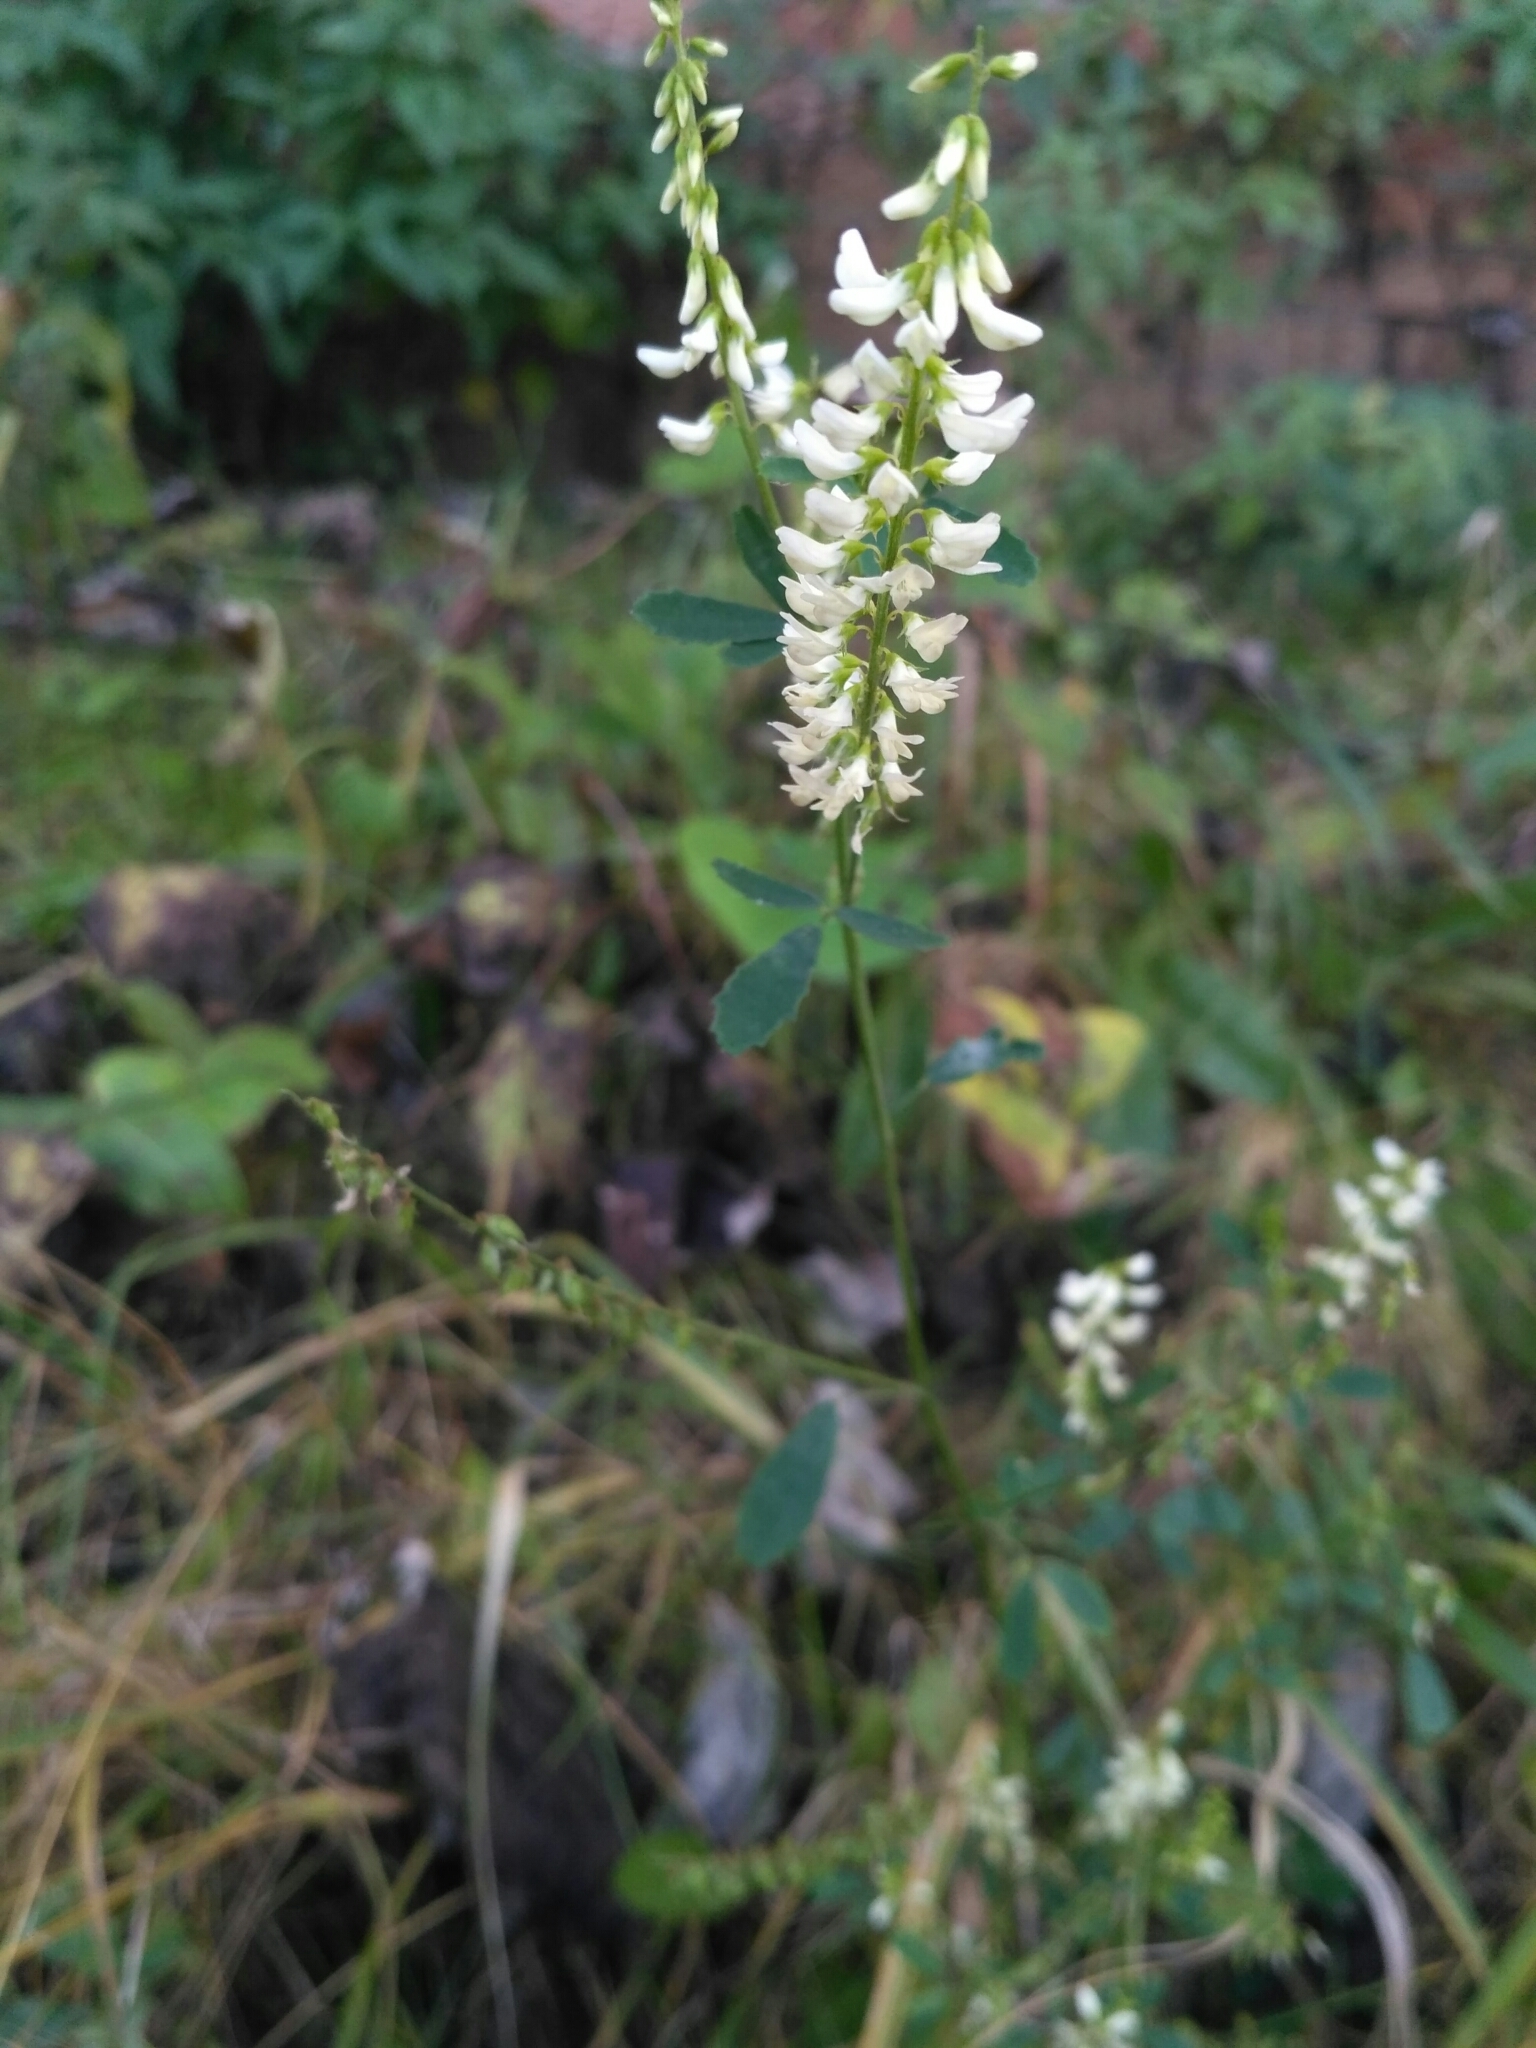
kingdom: Plantae
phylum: Tracheophyta
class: Magnoliopsida
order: Fabales
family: Fabaceae
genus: Melilotus
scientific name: Melilotus albus
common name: White melilot
